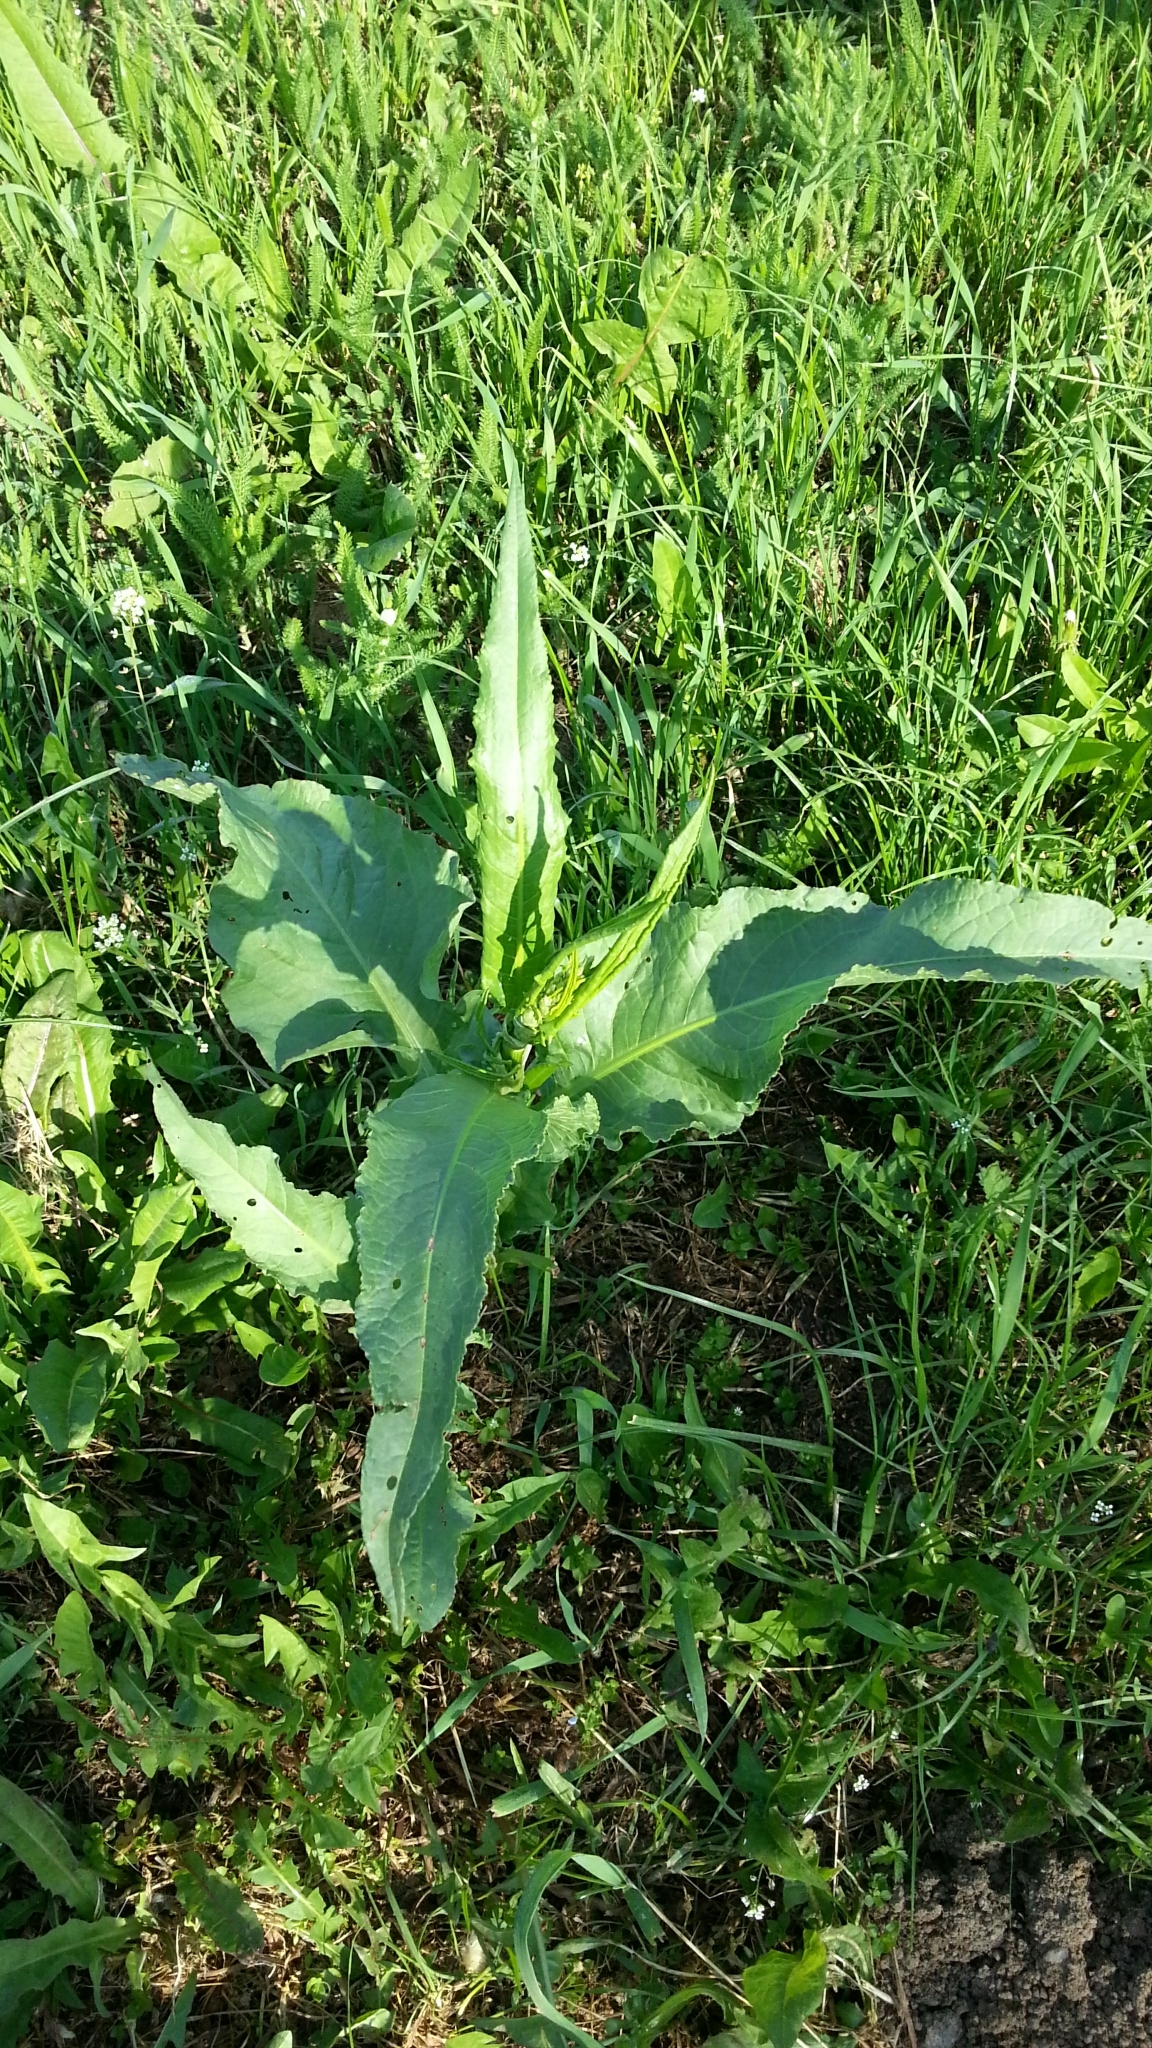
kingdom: Plantae
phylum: Tracheophyta
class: Magnoliopsida
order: Caryophyllales
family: Polygonaceae
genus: Rumex
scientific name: Rumex crispus
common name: Curled dock
